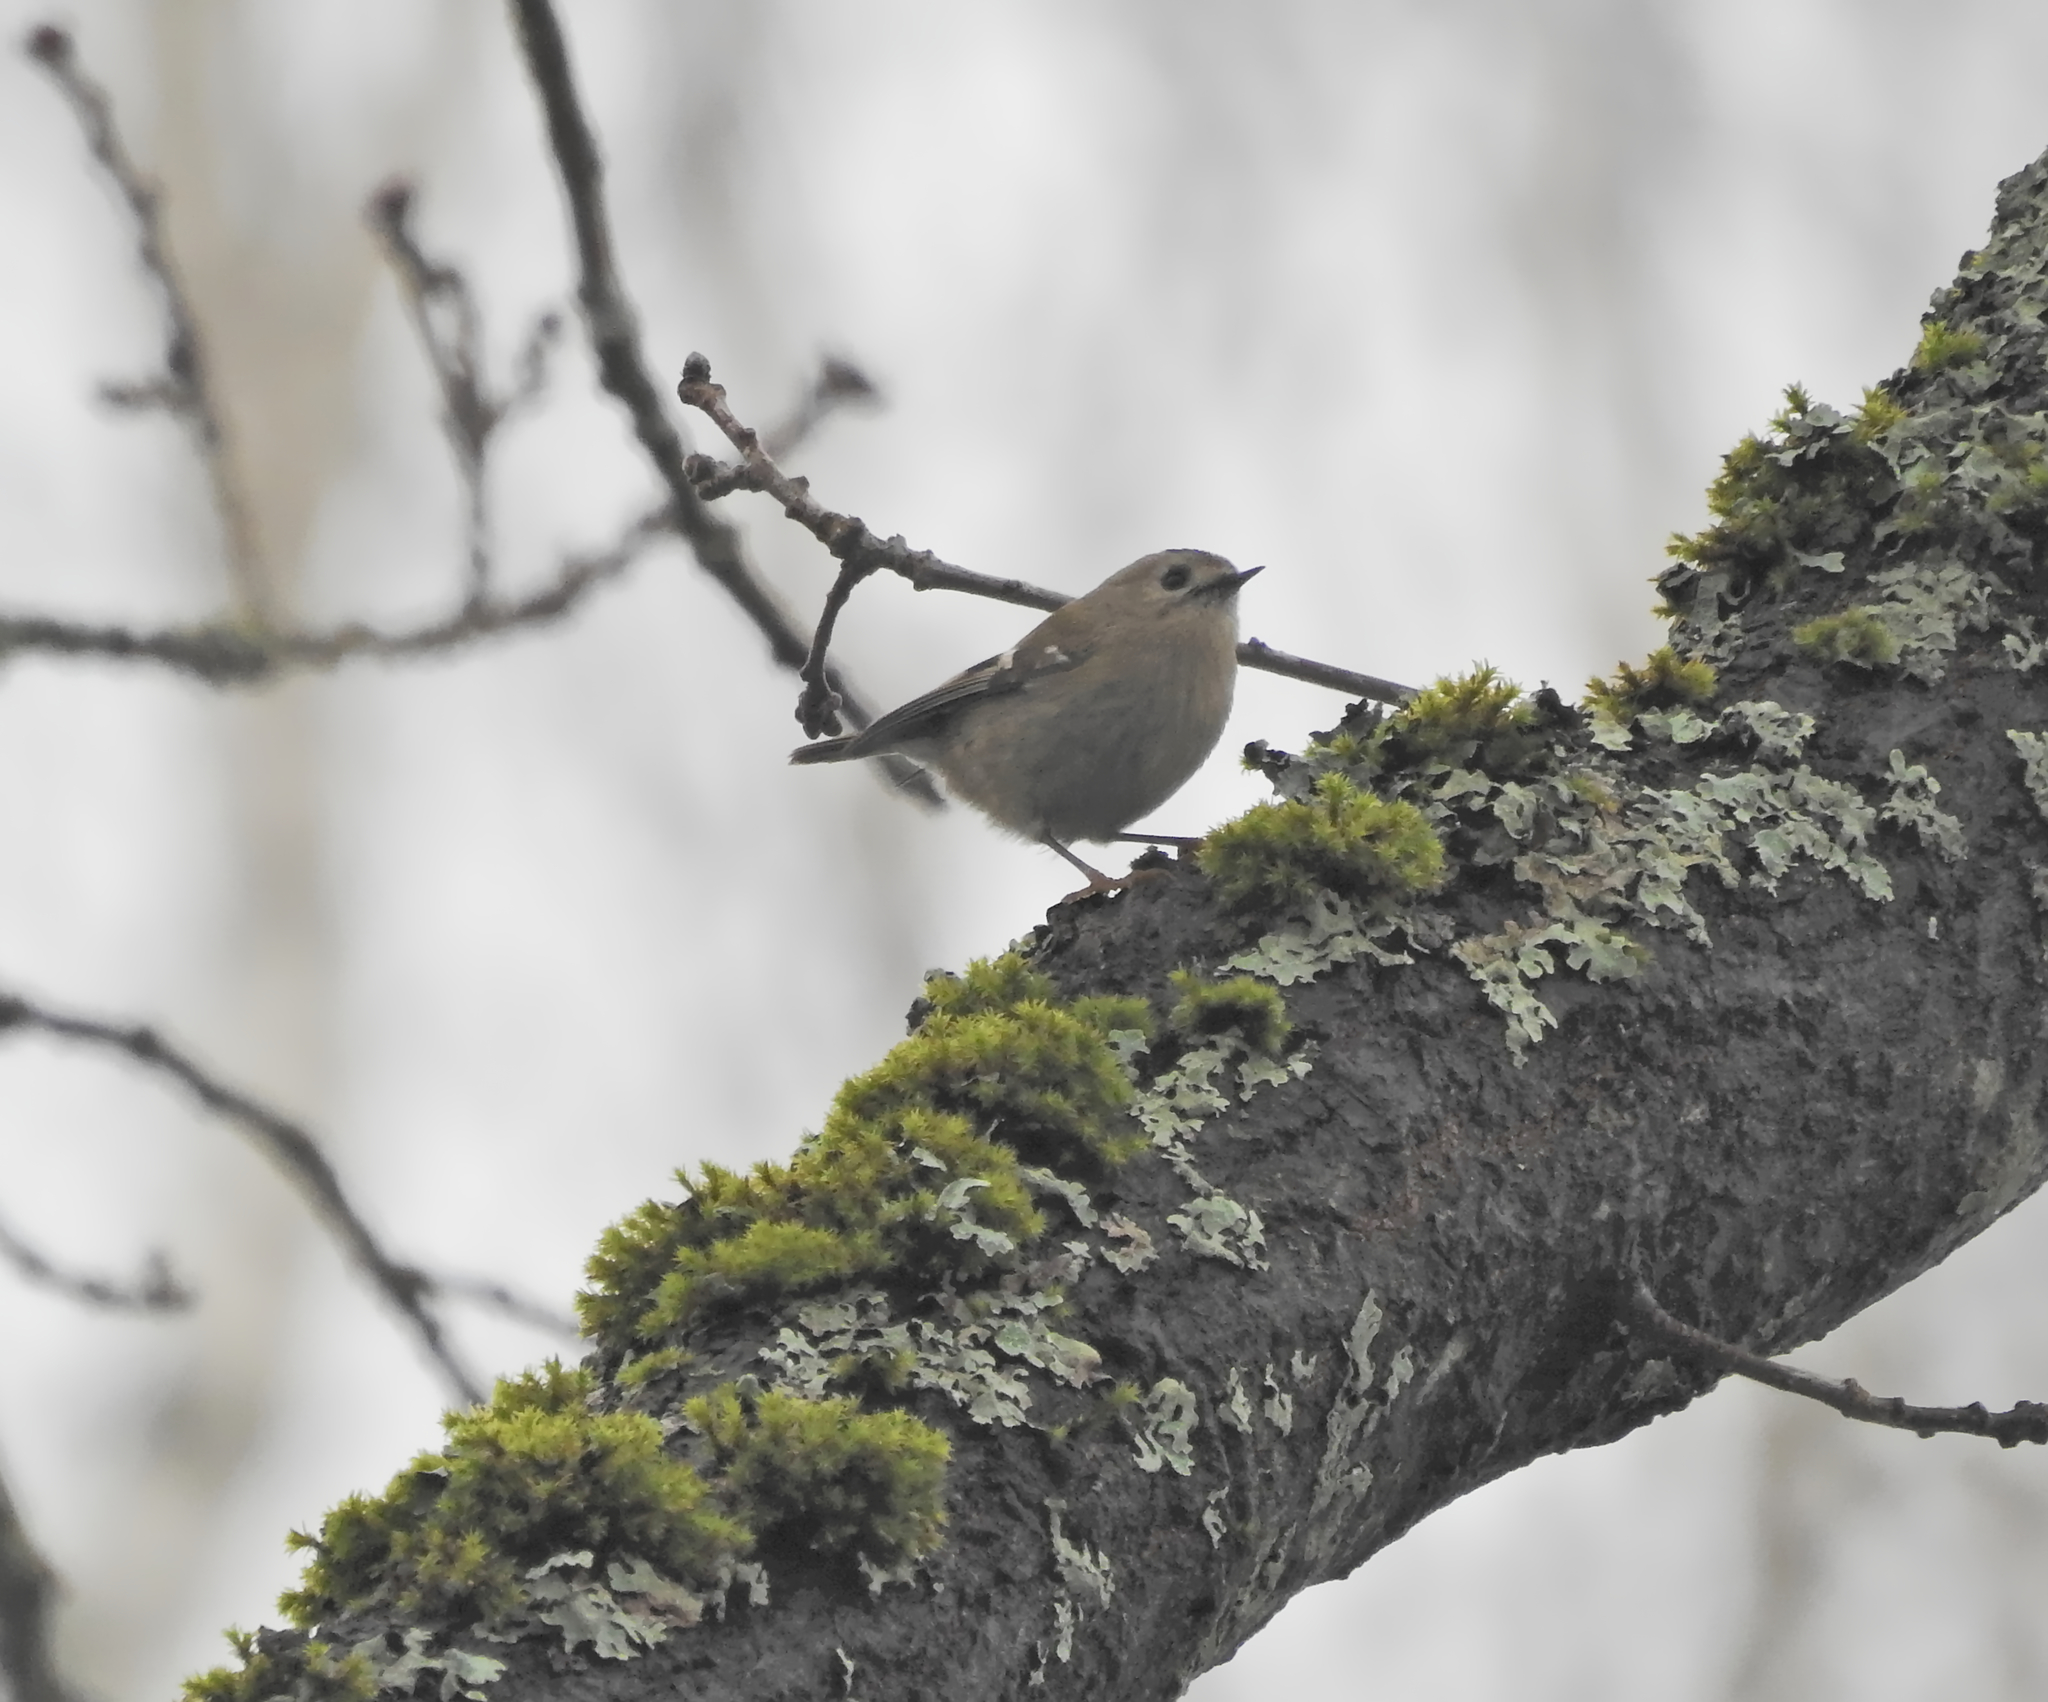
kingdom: Animalia
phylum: Chordata
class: Aves
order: Passeriformes
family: Regulidae
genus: Regulus
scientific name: Regulus regulus
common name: Goldcrest
